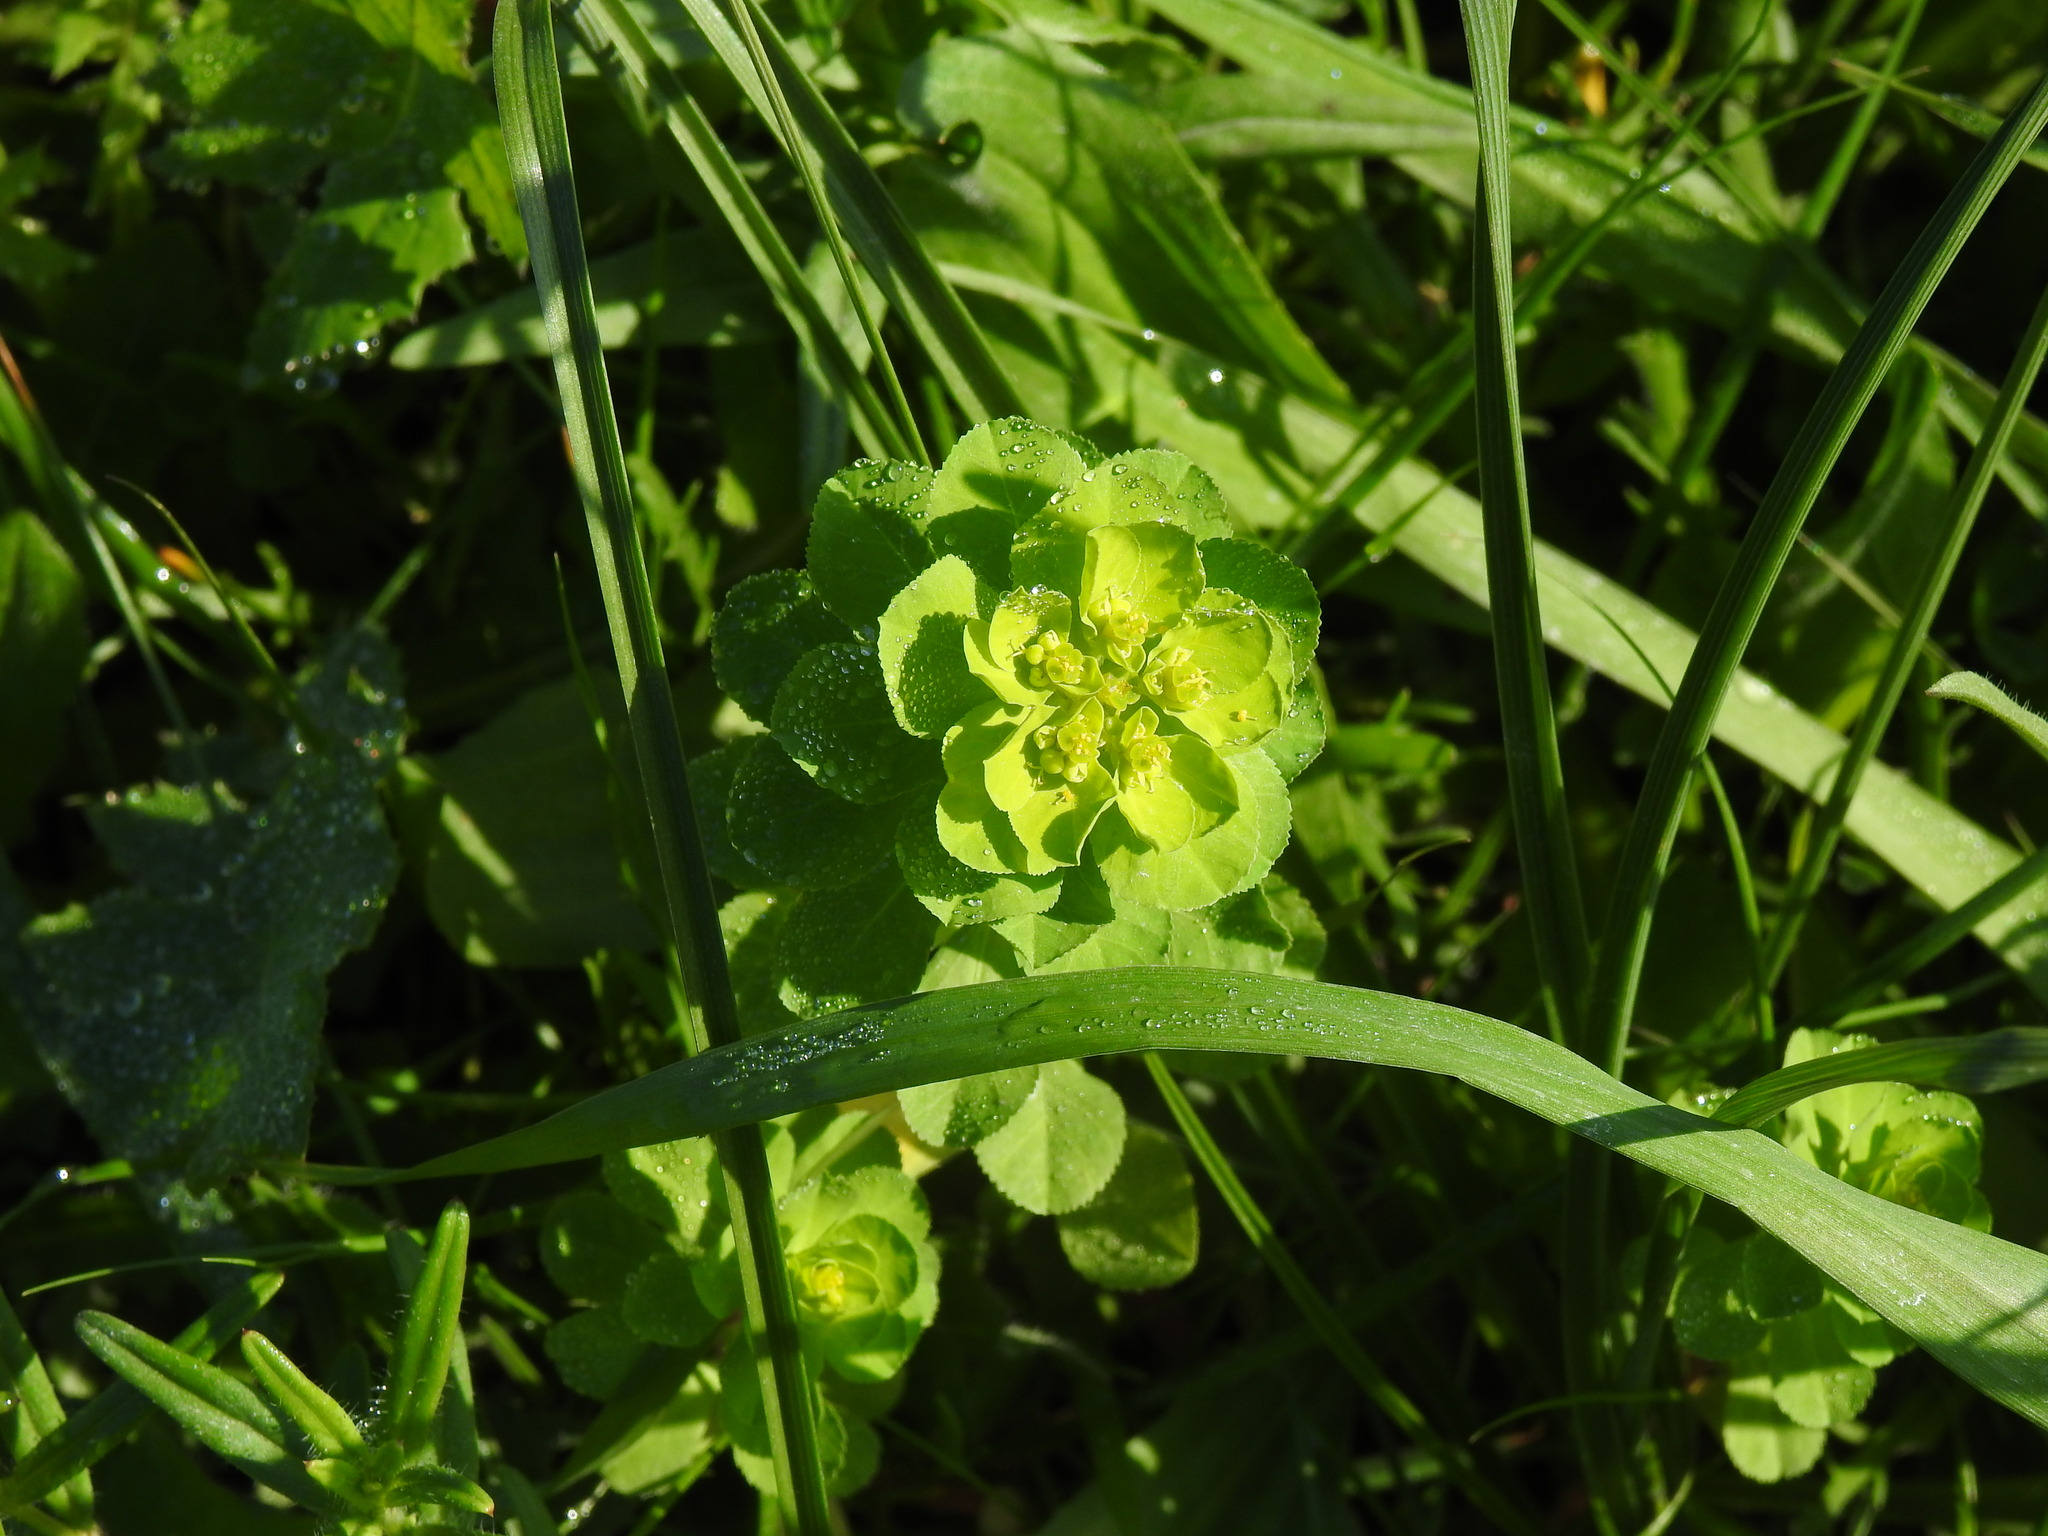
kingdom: Plantae
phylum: Tracheophyta
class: Magnoliopsida
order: Malpighiales
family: Euphorbiaceae
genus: Euphorbia
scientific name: Euphorbia helioscopia
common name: Sun spurge
